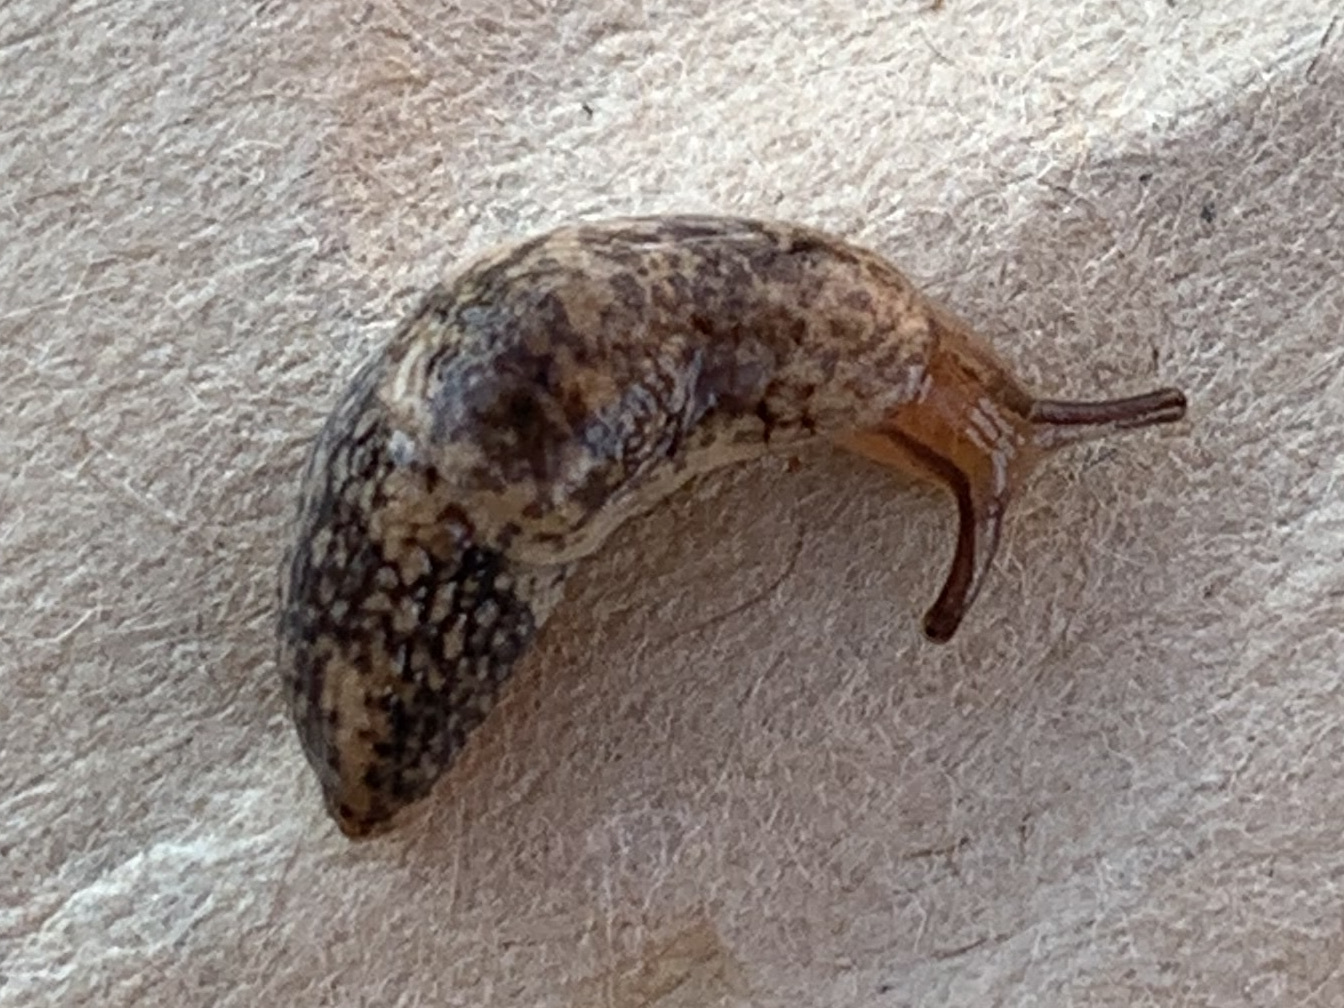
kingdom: Animalia
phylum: Mollusca
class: Gastropoda
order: Stylommatophora
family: Agriolimacidae
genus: Deroceras
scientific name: Deroceras reticulatum
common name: Gray field slug
